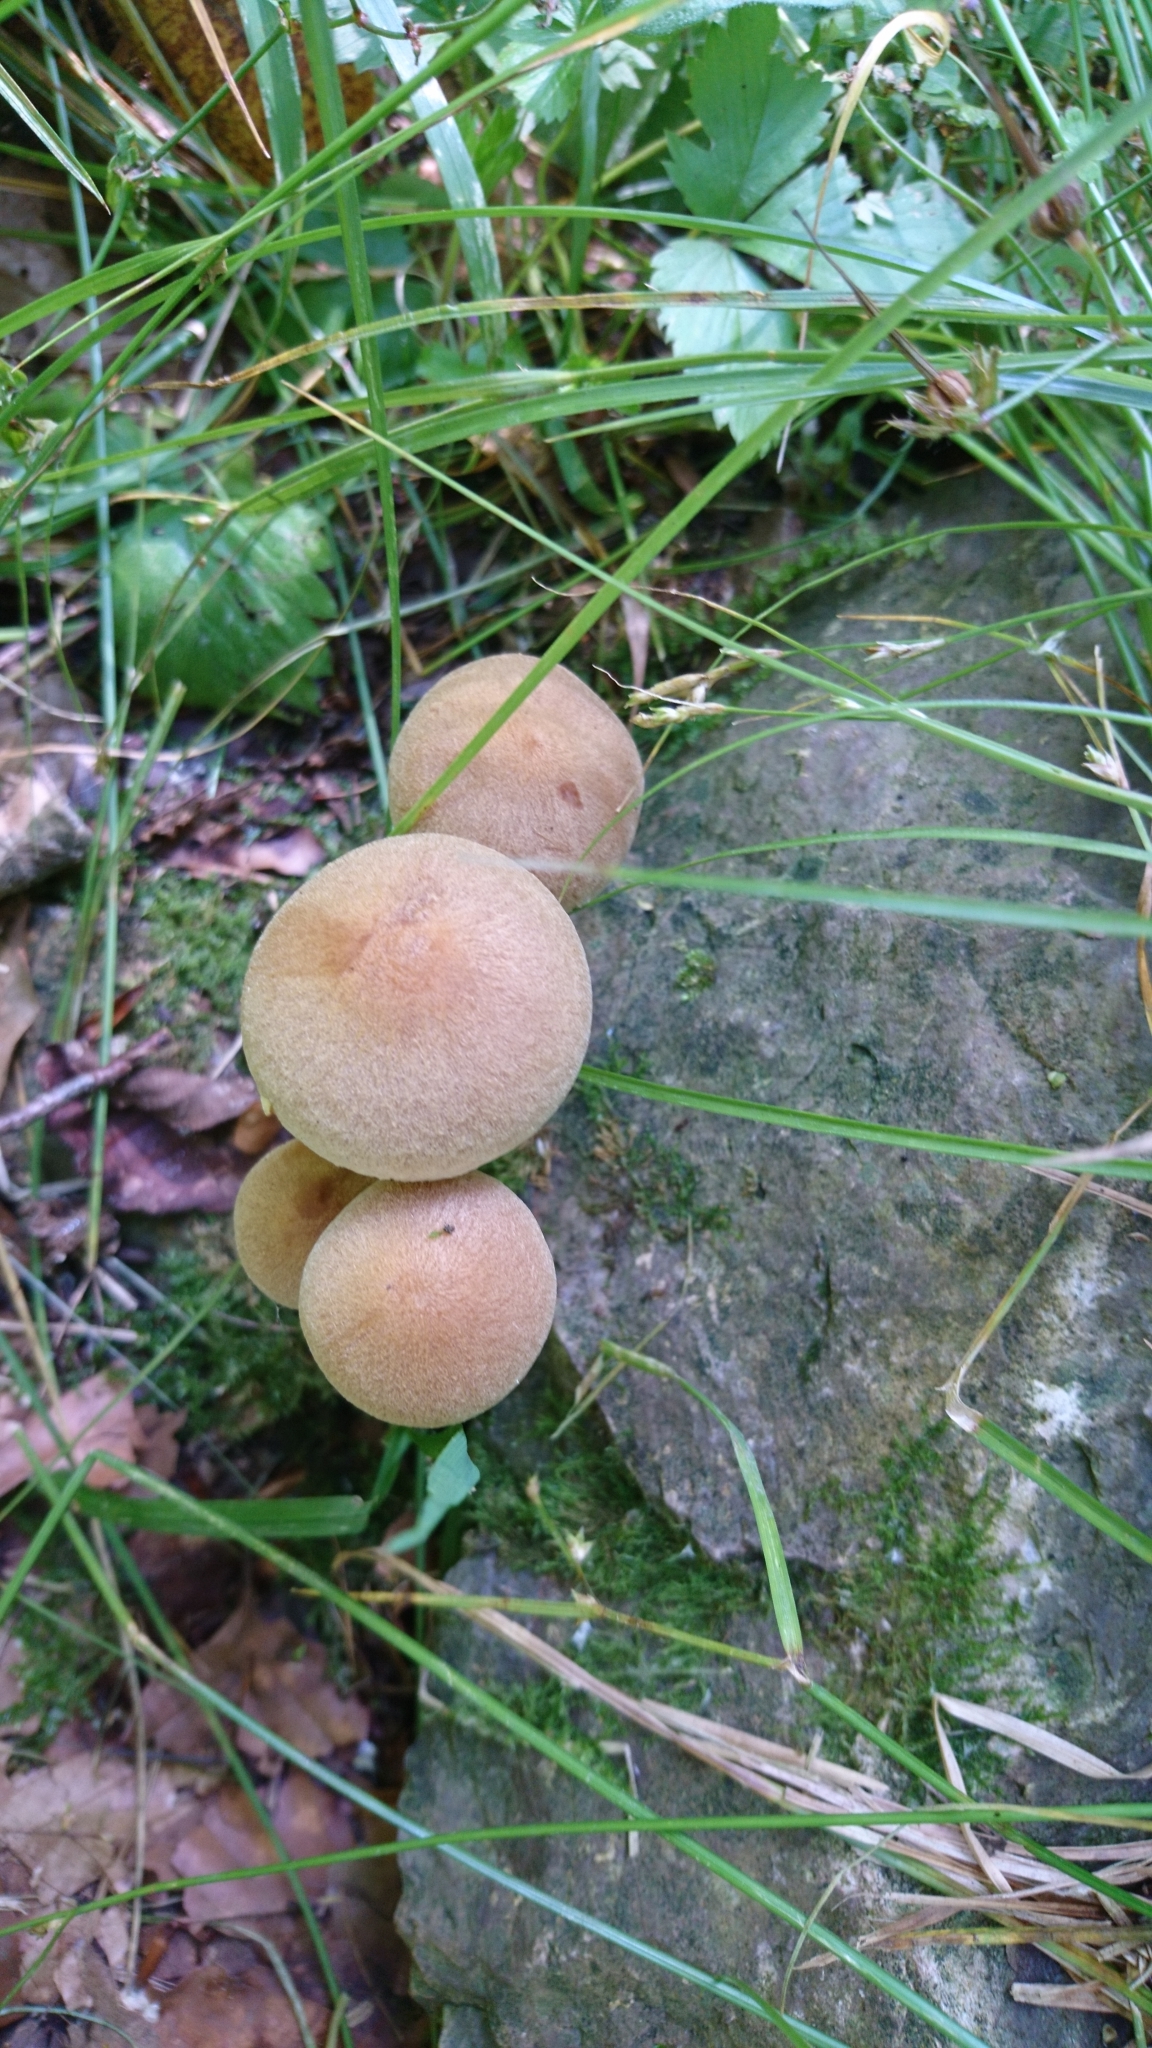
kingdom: Fungi
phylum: Basidiomycota
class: Agaricomycetes
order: Agaricales
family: Psathyrellaceae
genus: Lacrymaria
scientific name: Lacrymaria lacrymabunda
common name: Weeping widow
